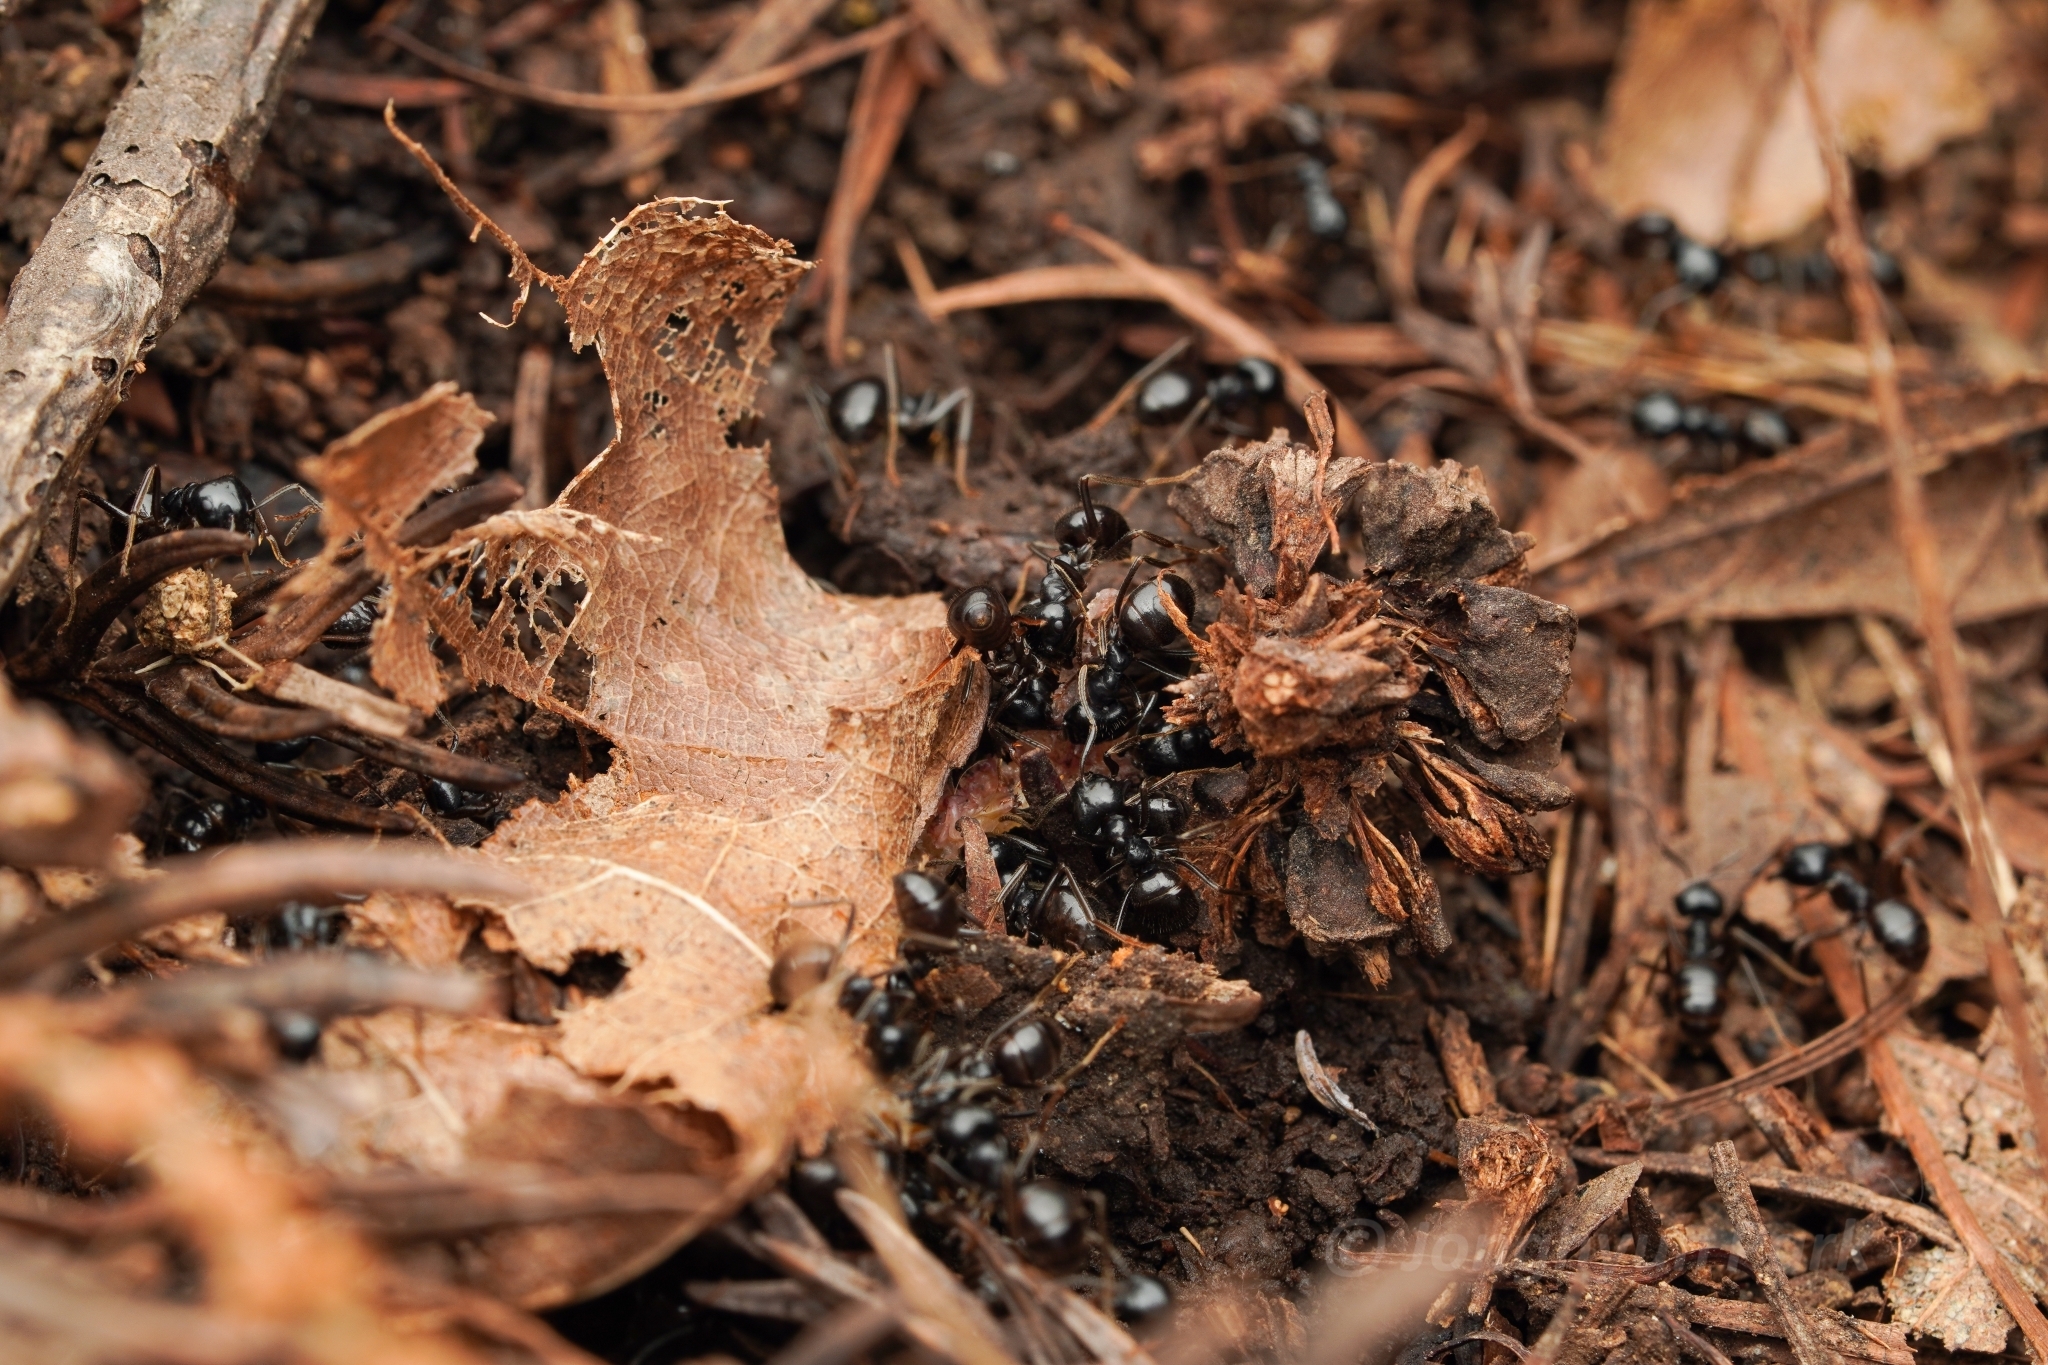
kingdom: Animalia
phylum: Arthropoda
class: Insecta
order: Hymenoptera
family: Formicidae
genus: Lasius
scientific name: Lasius spathepus
